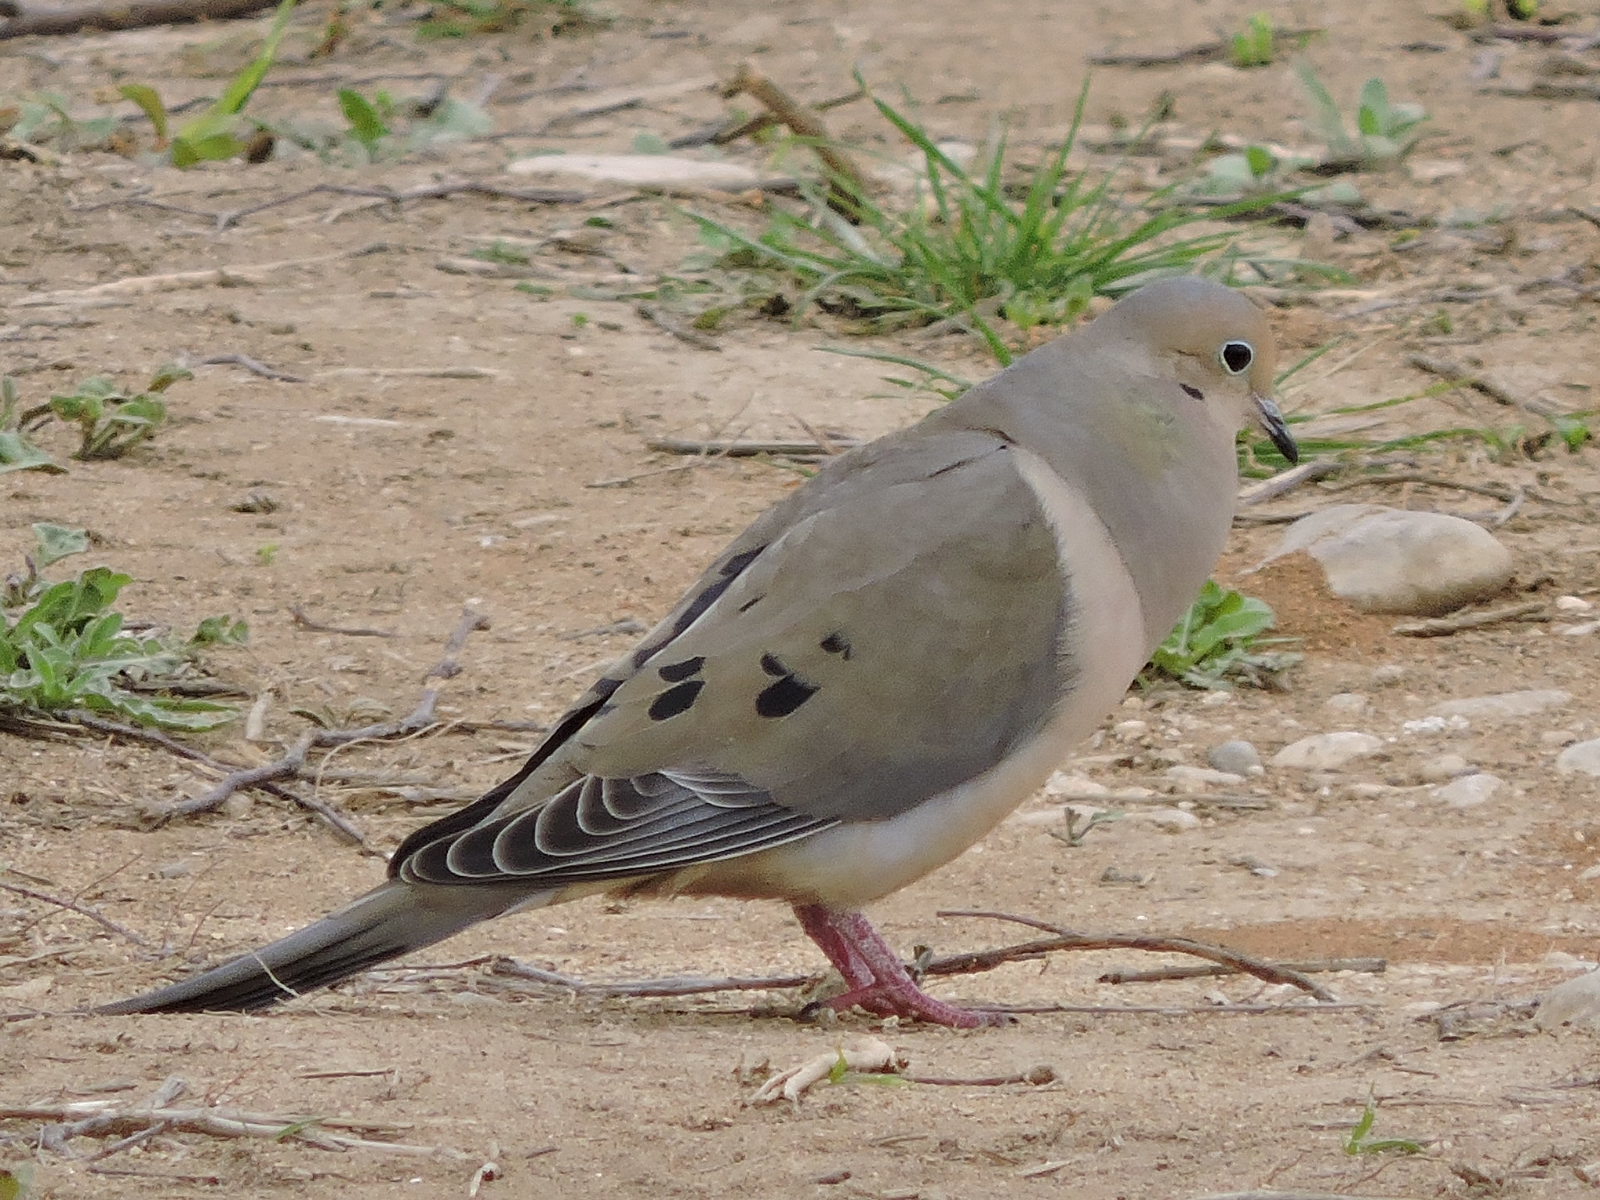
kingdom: Animalia
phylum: Chordata
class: Aves
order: Columbiformes
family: Columbidae
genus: Zenaida
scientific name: Zenaida macroura
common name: Mourning dove
